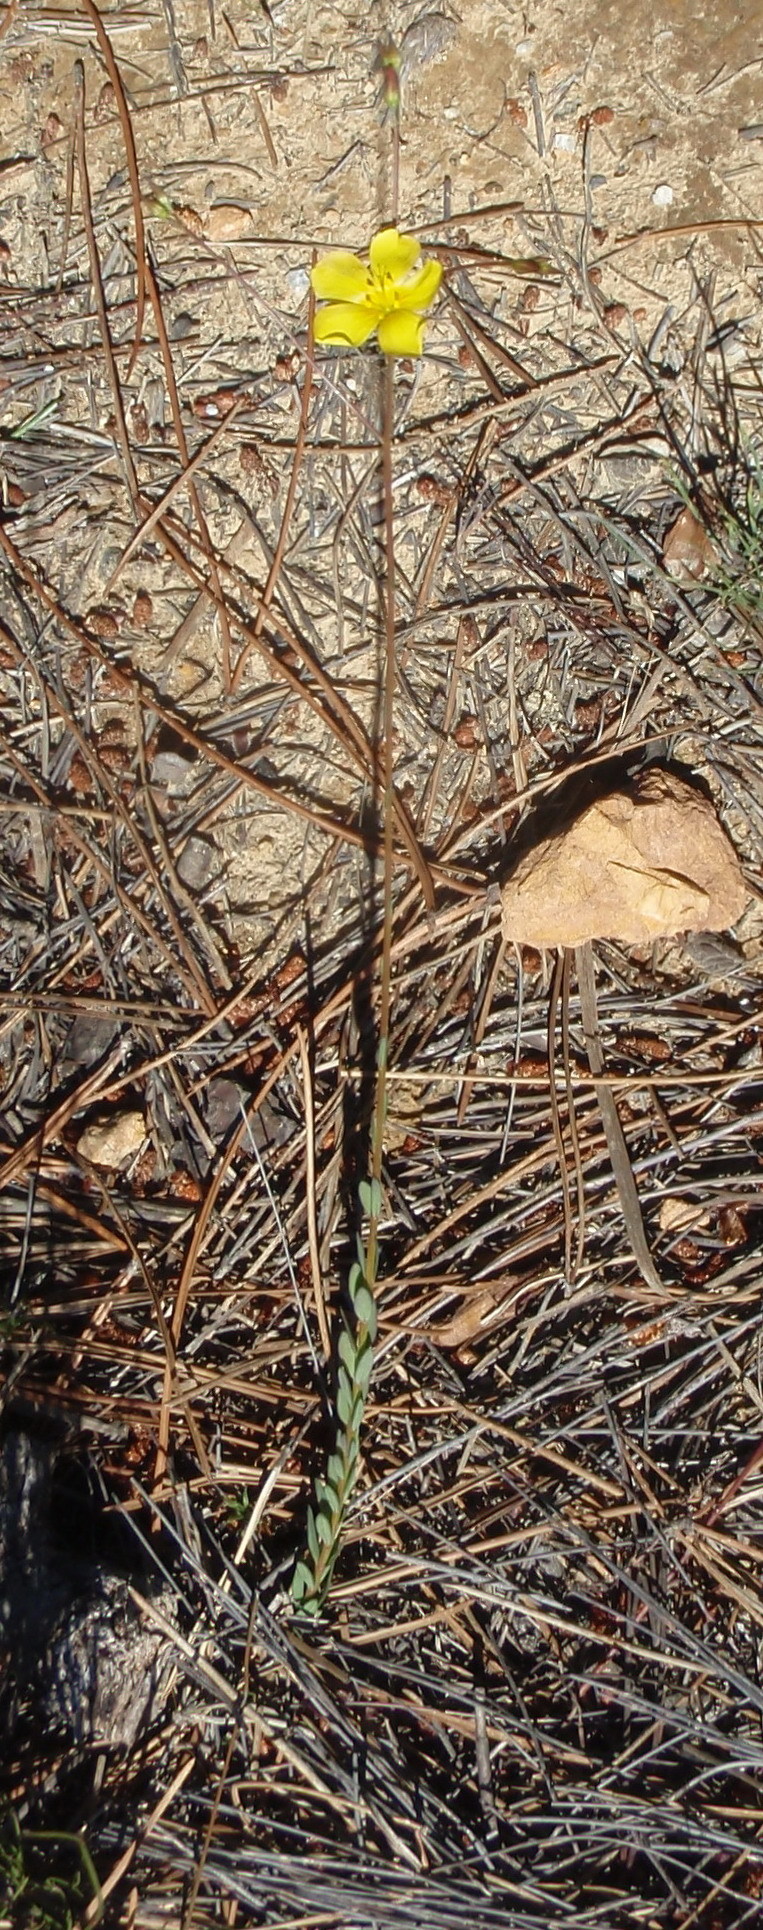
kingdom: Plantae
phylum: Tracheophyta
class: Magnoliopsida
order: Malpighiales
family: Linaceae
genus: Linum
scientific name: Linum africanum
